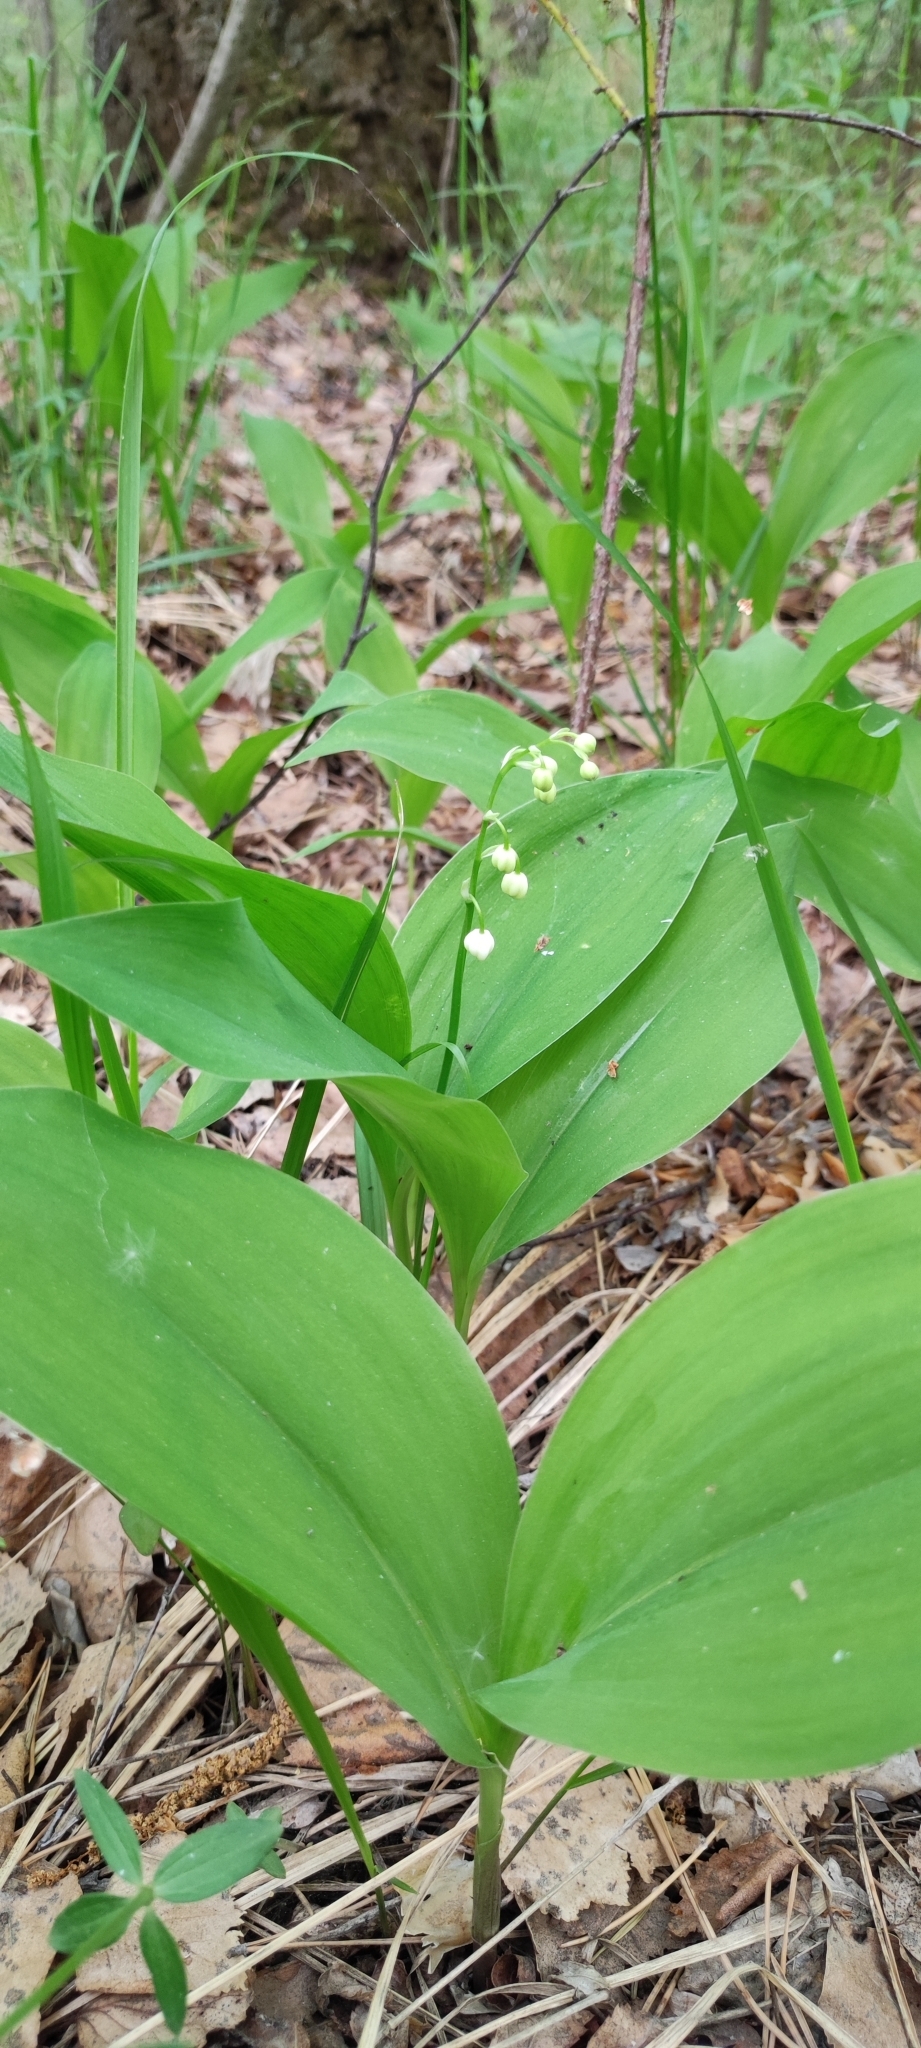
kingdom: Plantae
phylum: Tracheophyta
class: Liliopsida
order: Asparagales
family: Asparagaceae
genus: Convallaria
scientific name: Convallaria majalis
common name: Lily-of-the-valley
